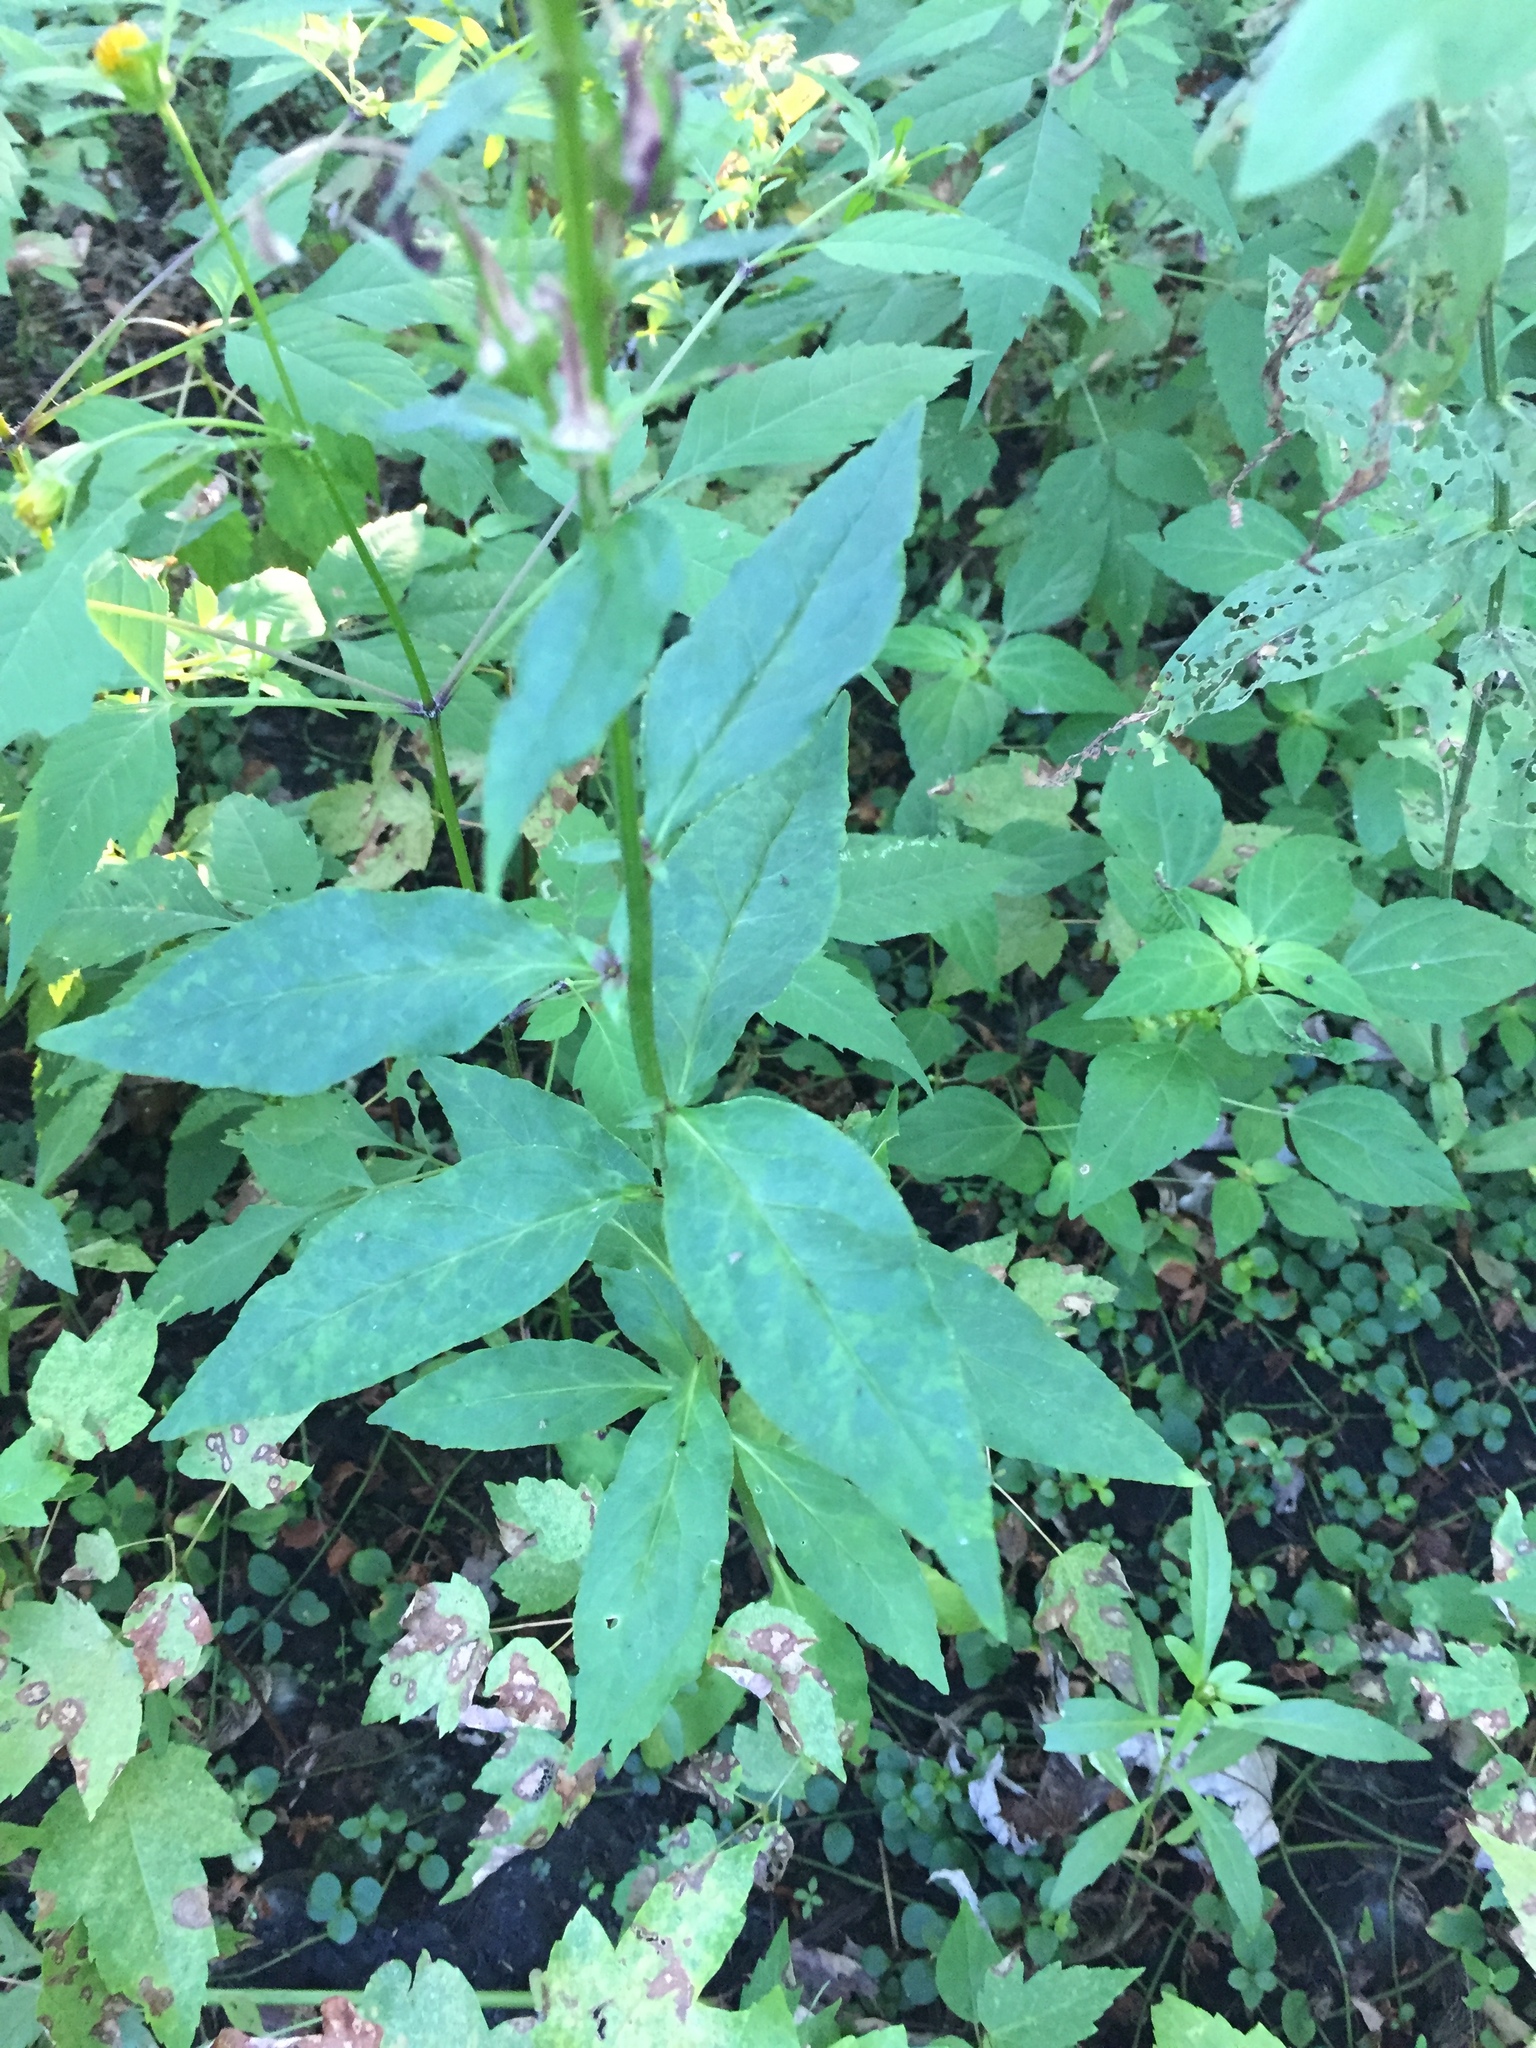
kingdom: Plantae
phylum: Tracheophyta
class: Magnoliopsida
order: Asterales
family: Campanulaceae
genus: Lobelia
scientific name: Lobelia cardinalis
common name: Cardinal flower
